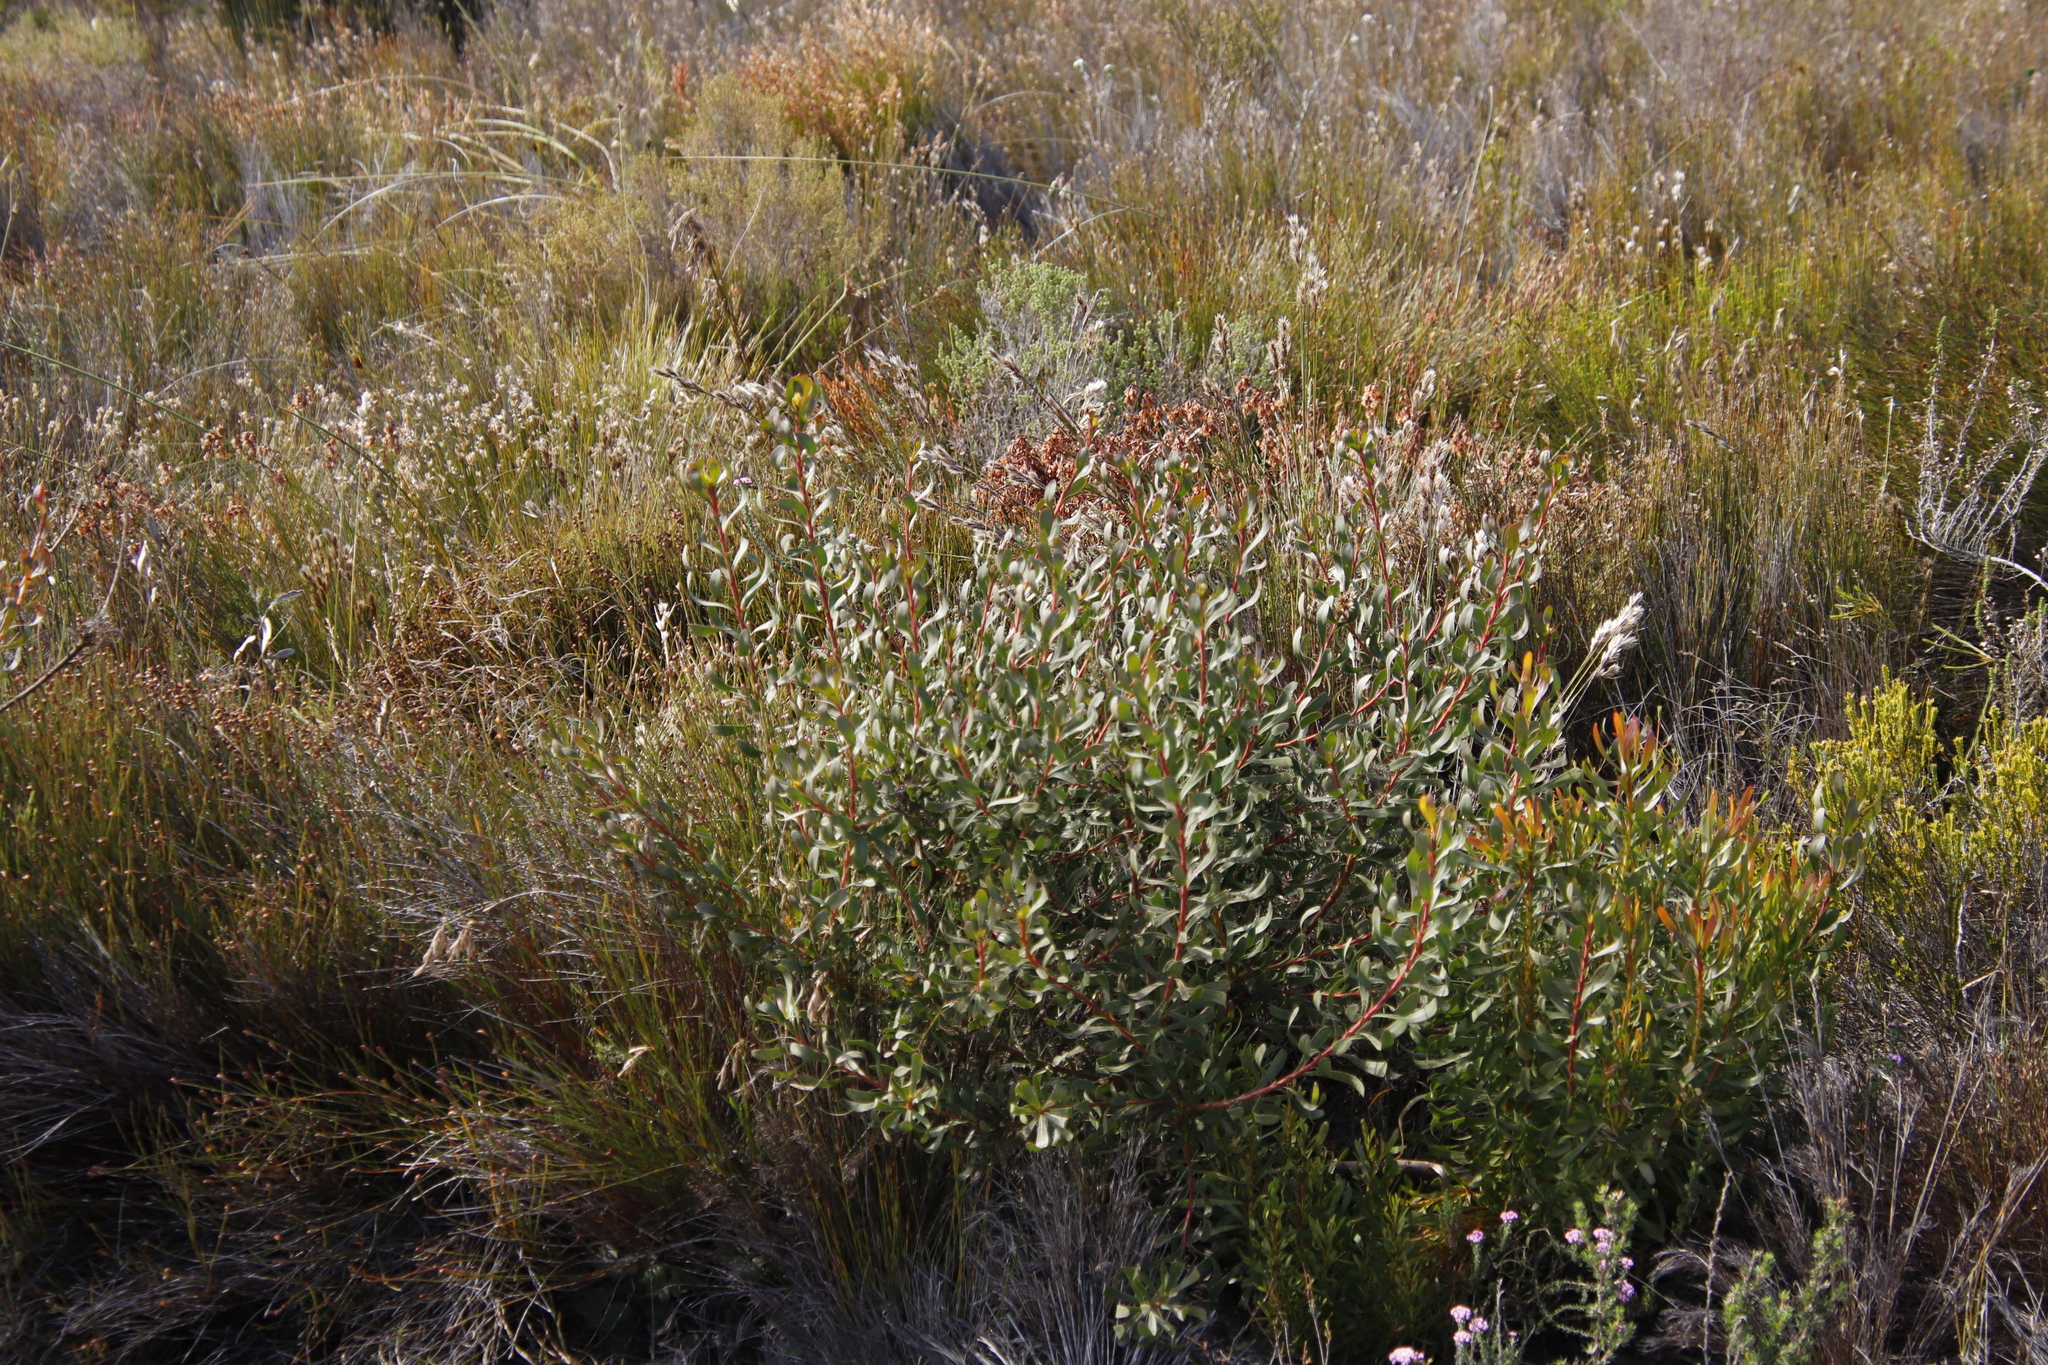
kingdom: Plantae
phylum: Tracheophyta
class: Magnoliopsida
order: Proteales
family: Proteaceae
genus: Aulax
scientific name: Aulax umbellata
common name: Broad-leaf featherbush
